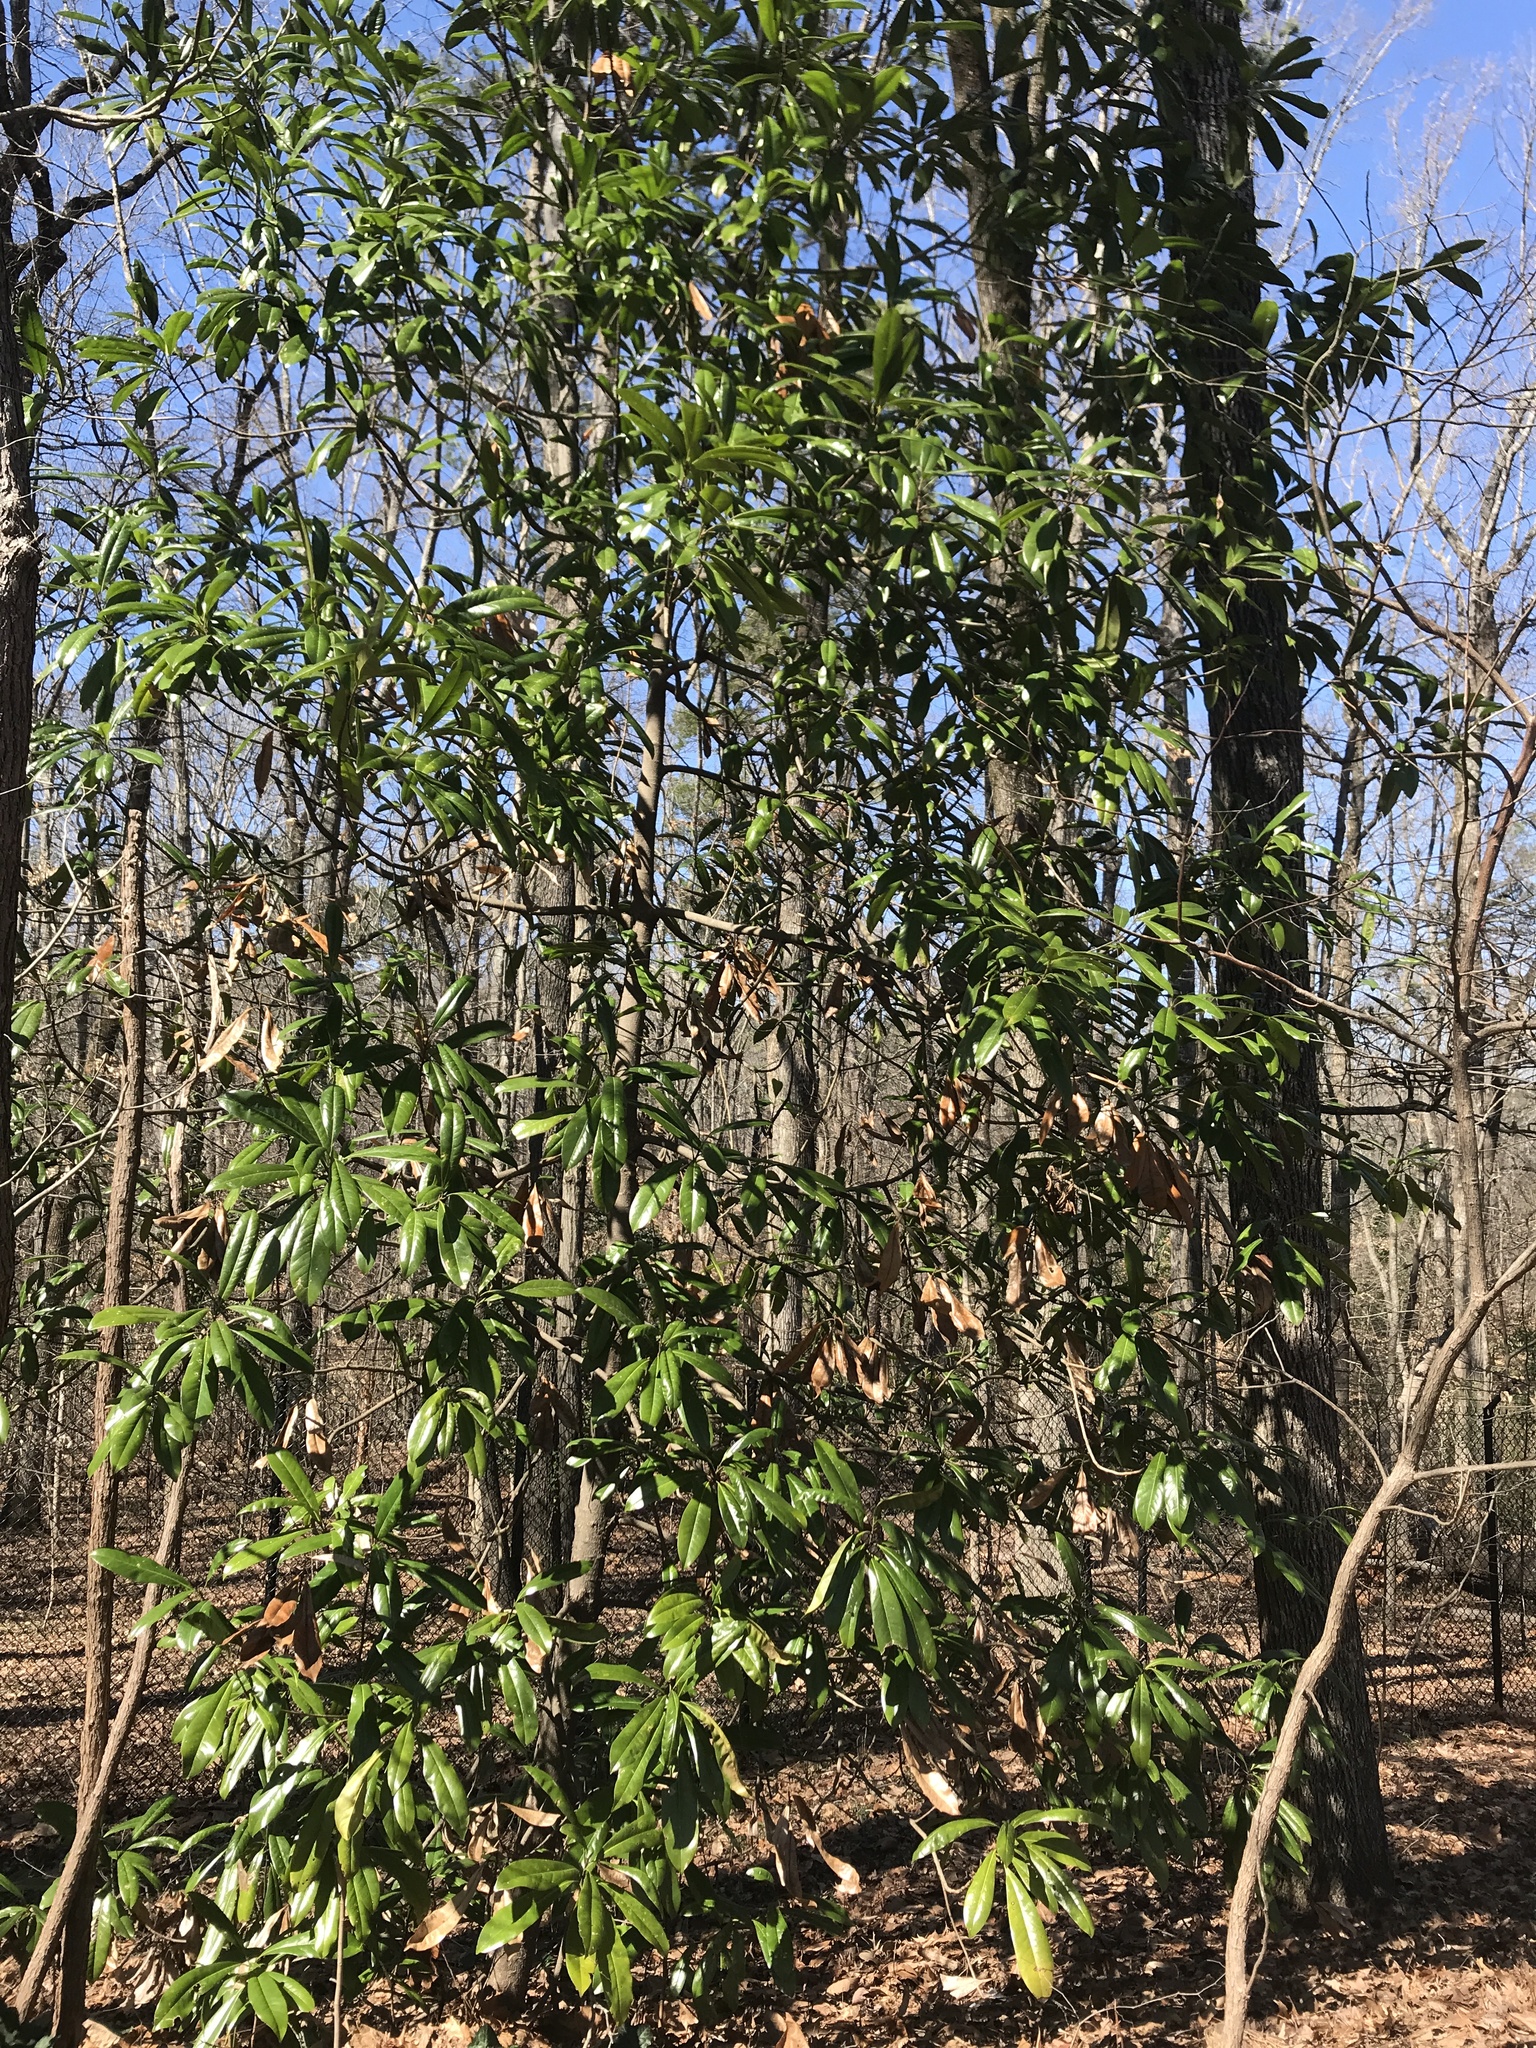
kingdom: Plantae
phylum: Tracheophyta
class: Magnoliopsida
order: Magnoliales
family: Magnoliaceae
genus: Magnolia
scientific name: Magnolia grandiflora
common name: Southern magnolia
